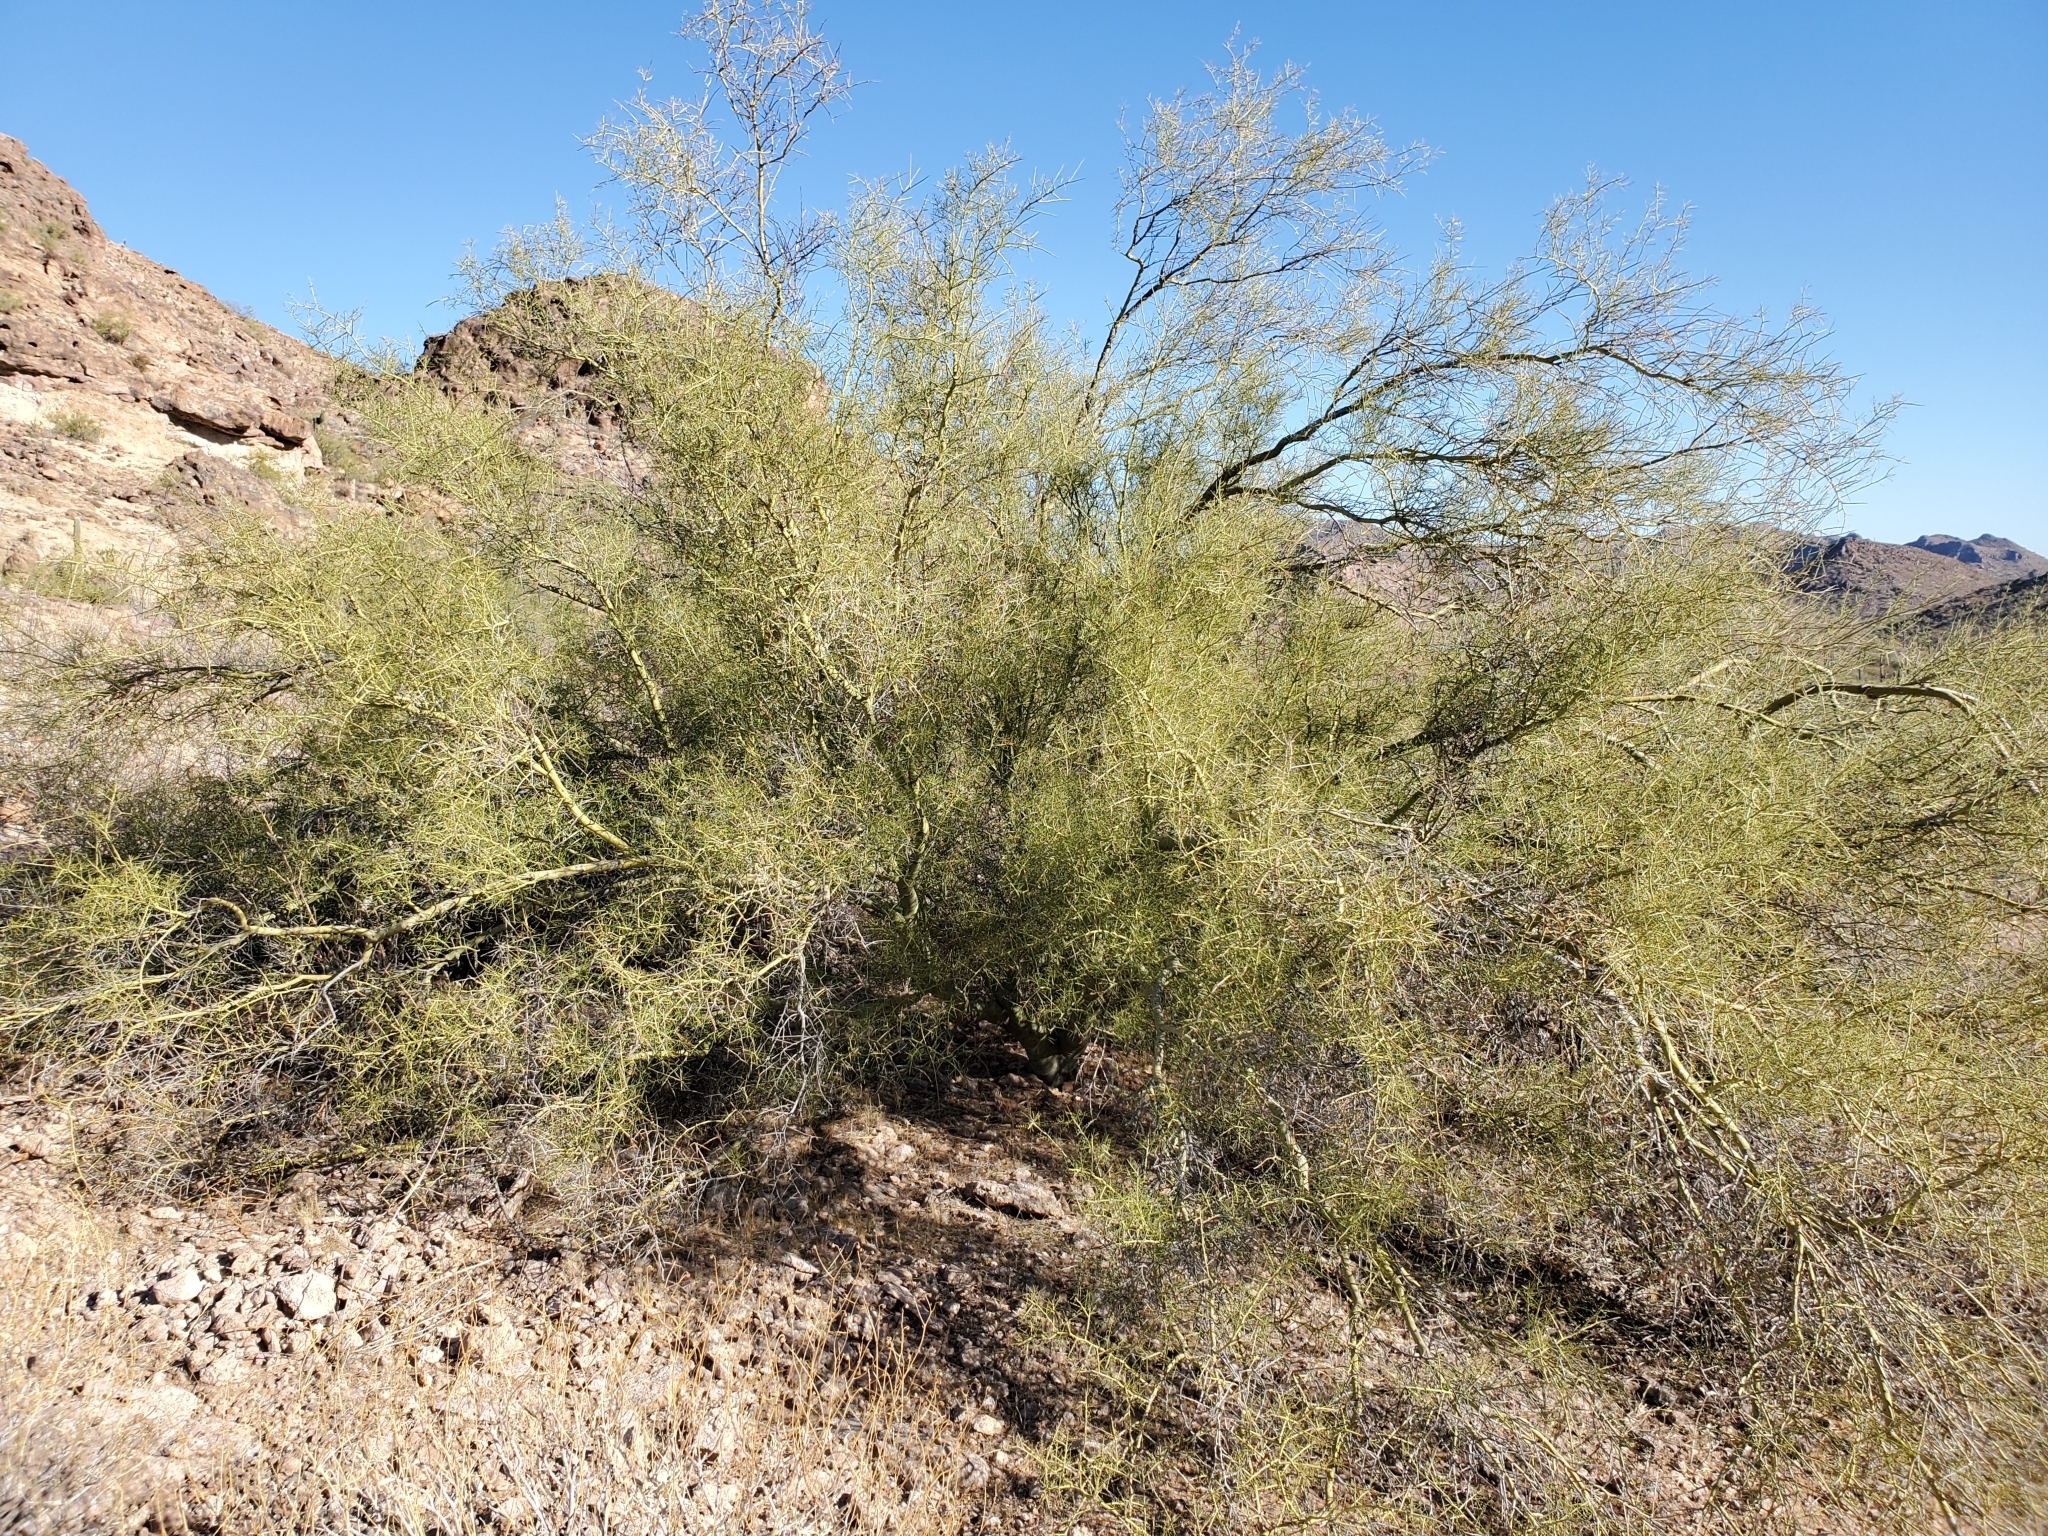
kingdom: Plantae
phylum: Tracheophyta
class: Magnoliopsida
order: Fabales
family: Fabaceae
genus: Parkinsonia
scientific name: Parkinsonia microphylla
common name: Yellow paloverde
